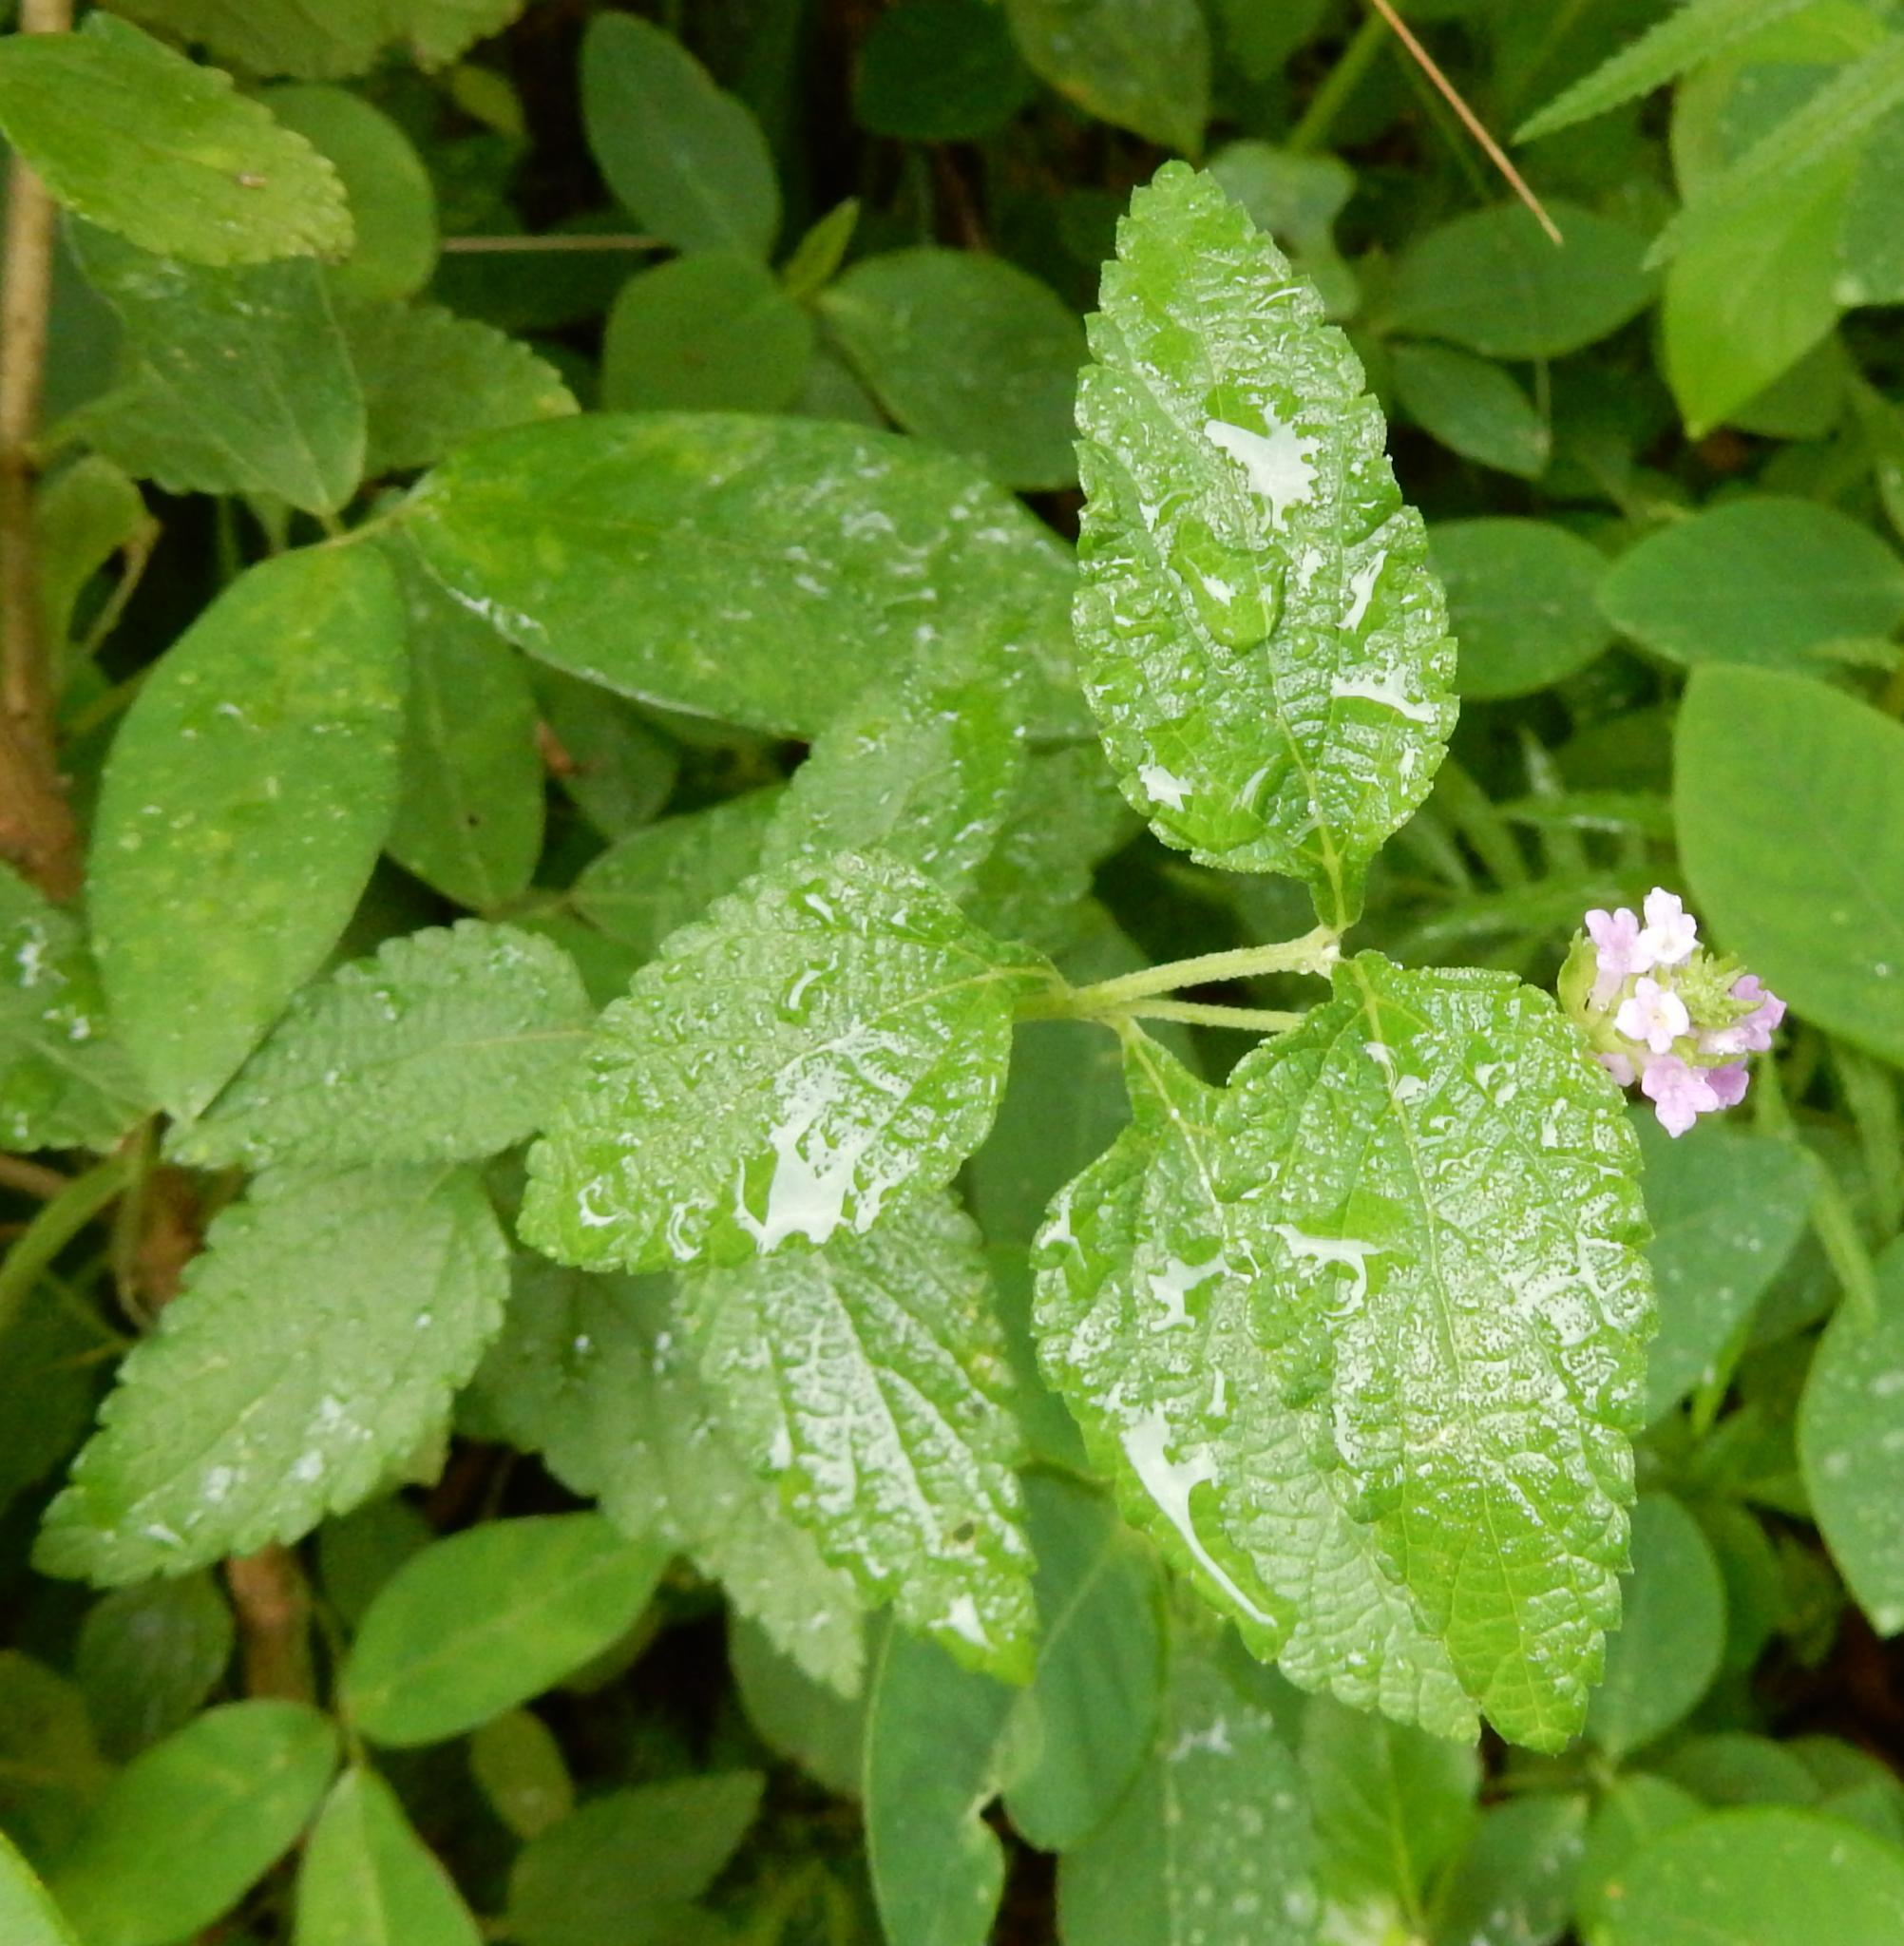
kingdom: Plantae
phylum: Tracheophyta
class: Magnoliopsida
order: Lamiales
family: Verbenaceae
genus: Lantana
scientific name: Lantana rugosa
